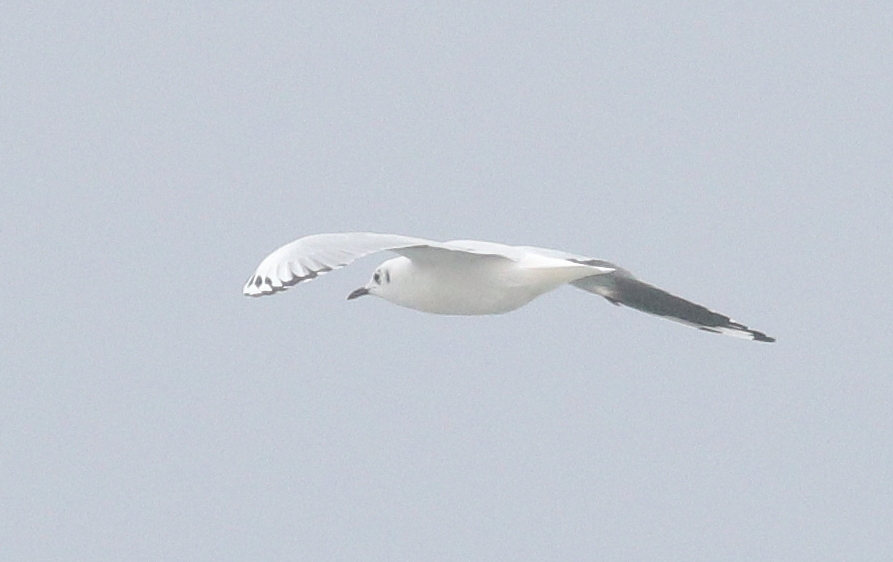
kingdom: Animalia
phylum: Chordata
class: Aves
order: Charadriiformes
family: Laridae
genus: Chroicocephalus
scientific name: Chroicocephalus serranus
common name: Andean gull
